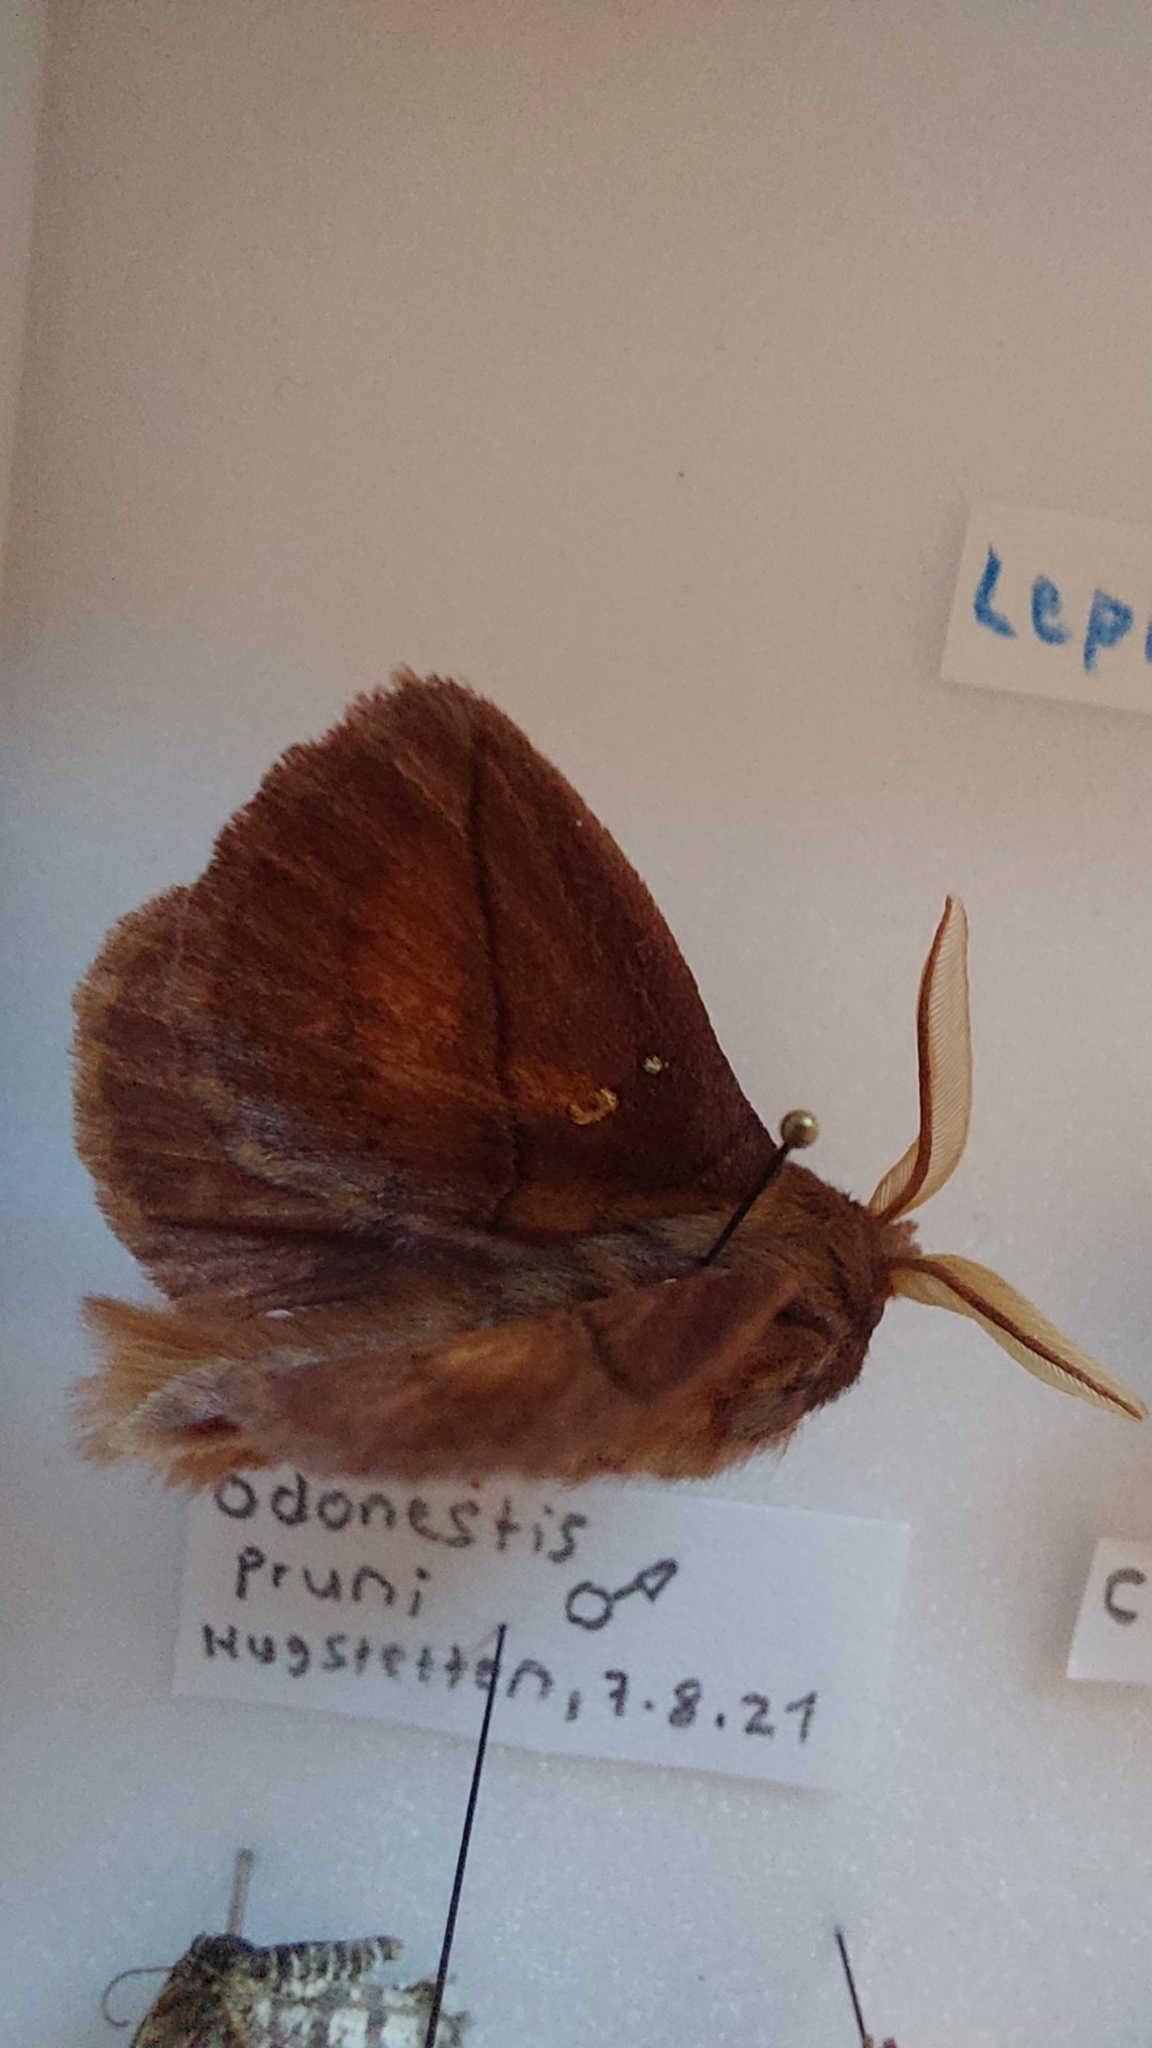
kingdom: Animalia
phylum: Arthropoda
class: Insecta
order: Lepidoptera
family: Lasiocampidae
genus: Euthrix
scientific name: Euthrix potatoria
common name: Drinker
